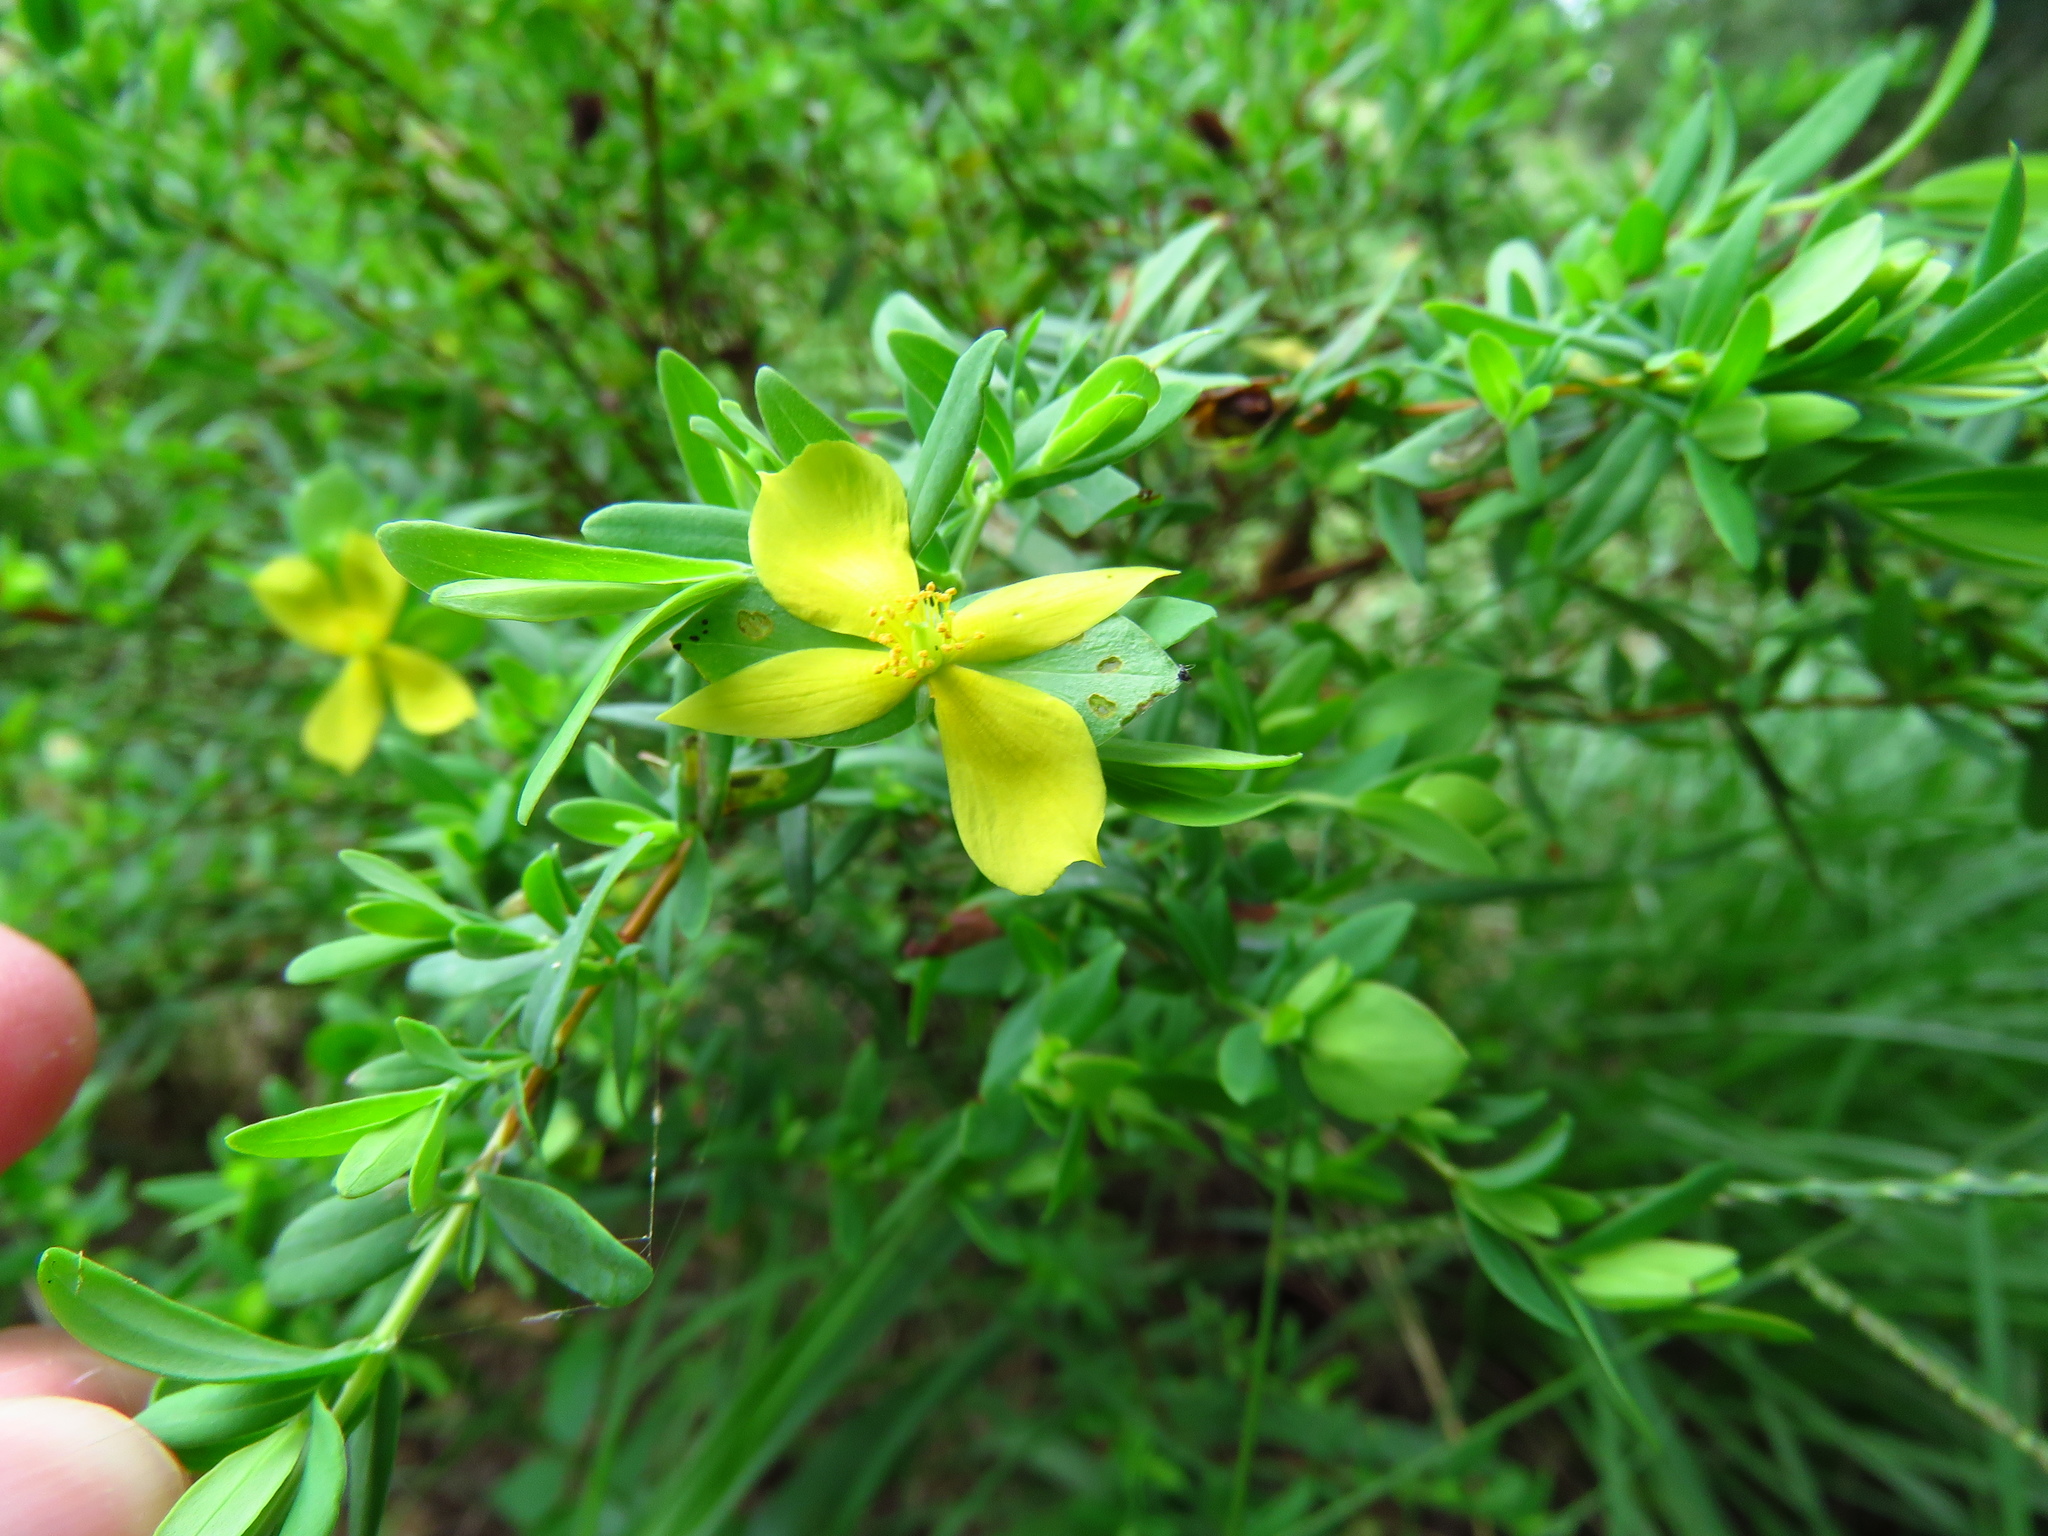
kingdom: Plantae
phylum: Tracheophyta
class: Magnoliopsida
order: Malpighiales
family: Hypericaceae
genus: Hypericum
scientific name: Hypericum hypericoides
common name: St. andrew's cross
